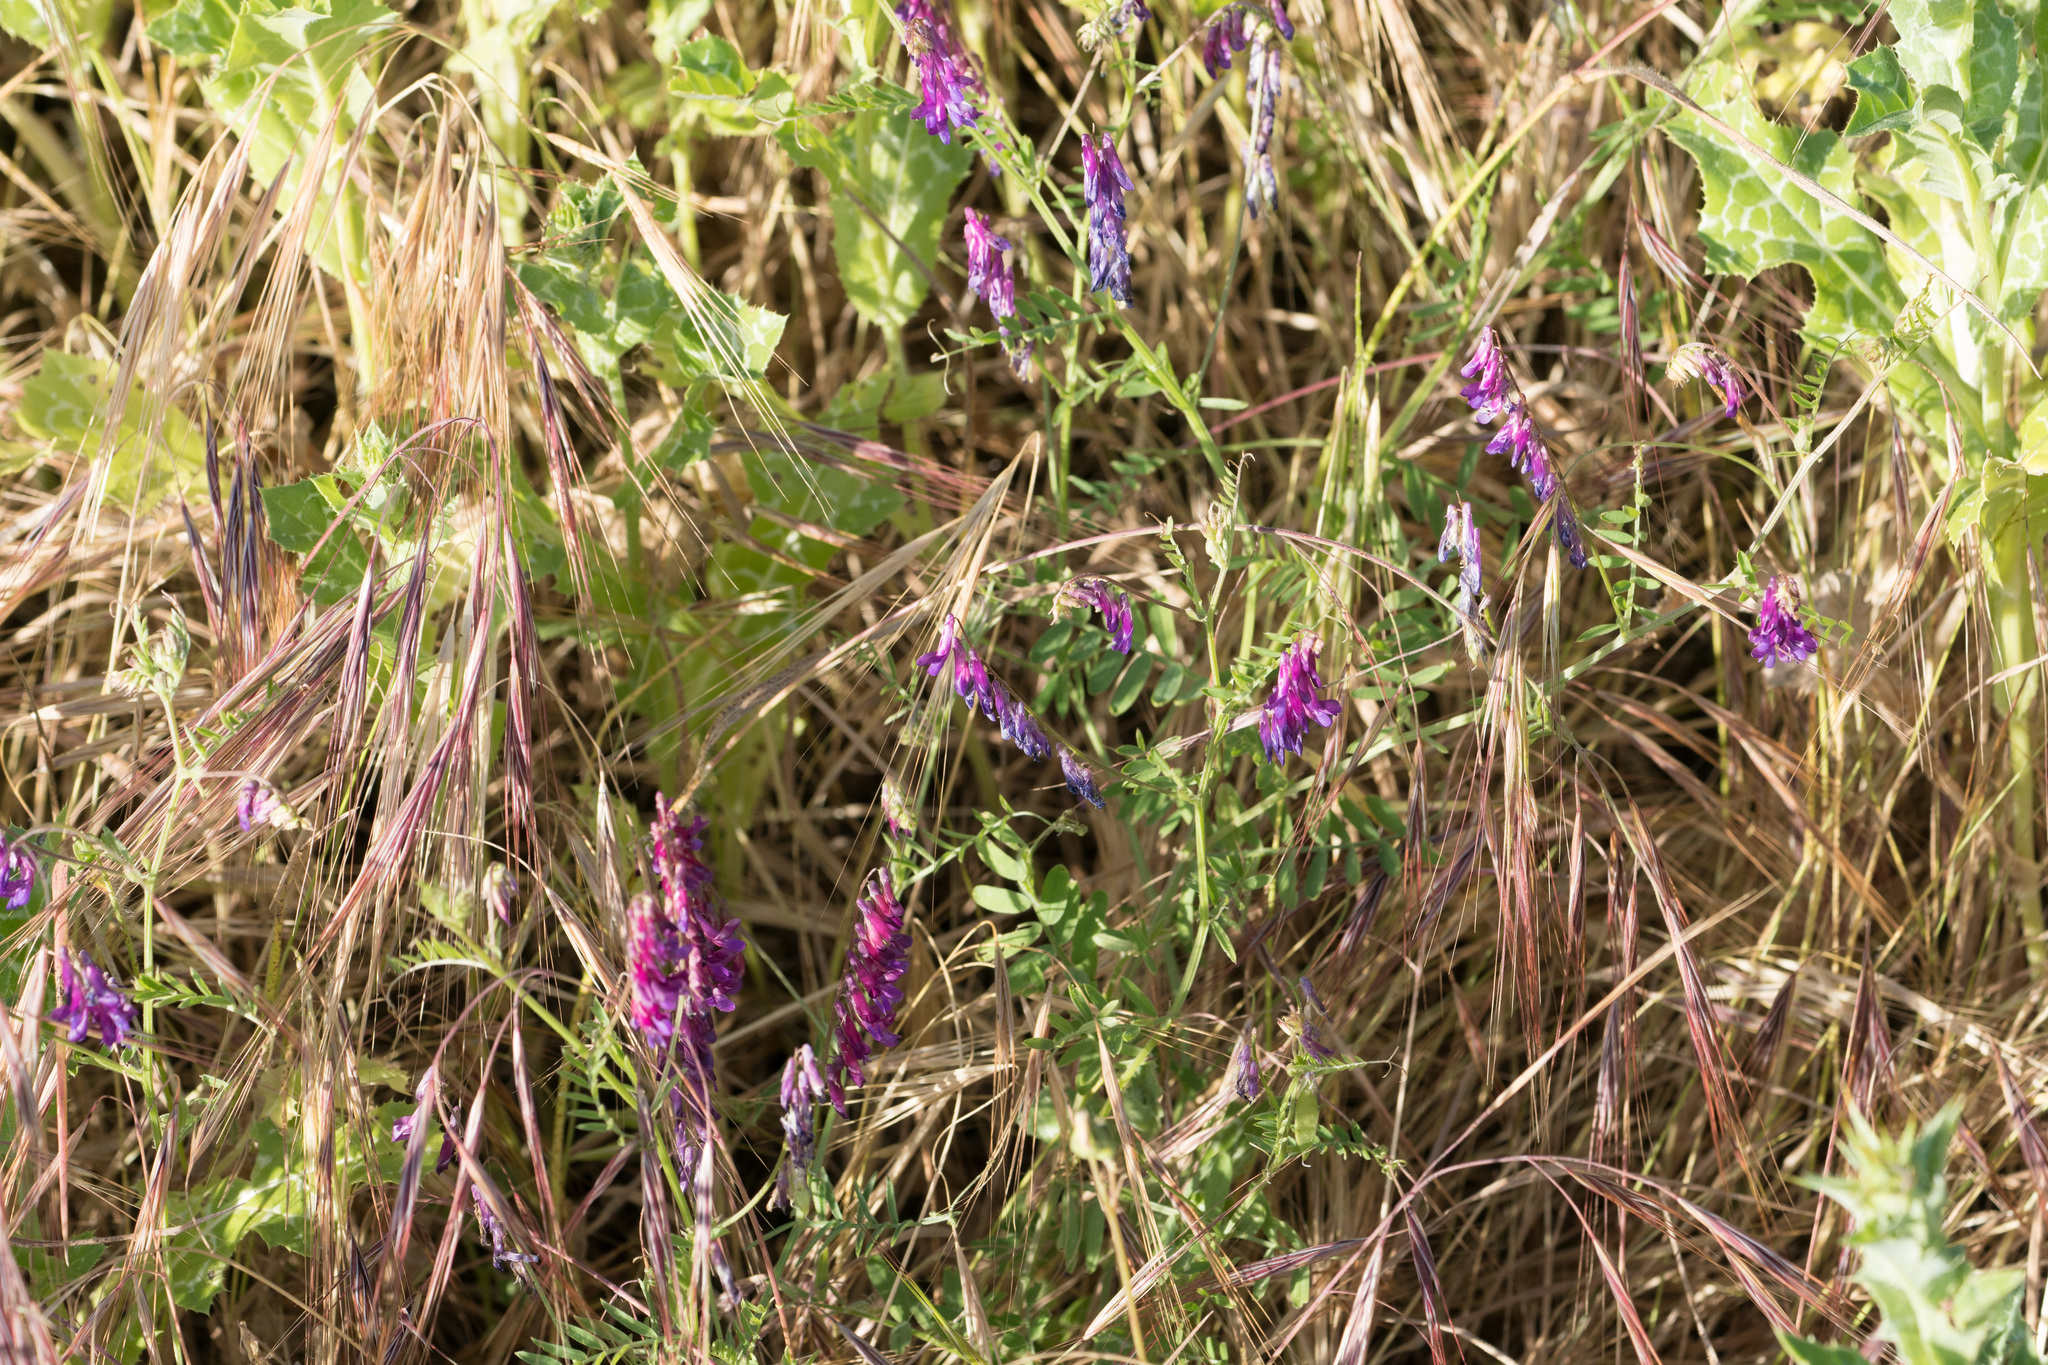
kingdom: Plantae
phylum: Tracheophyta
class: Magnoliopsida
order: Fabales
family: Fabaceae
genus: Vicia
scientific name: Vicia villosa
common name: Fodder vetch
